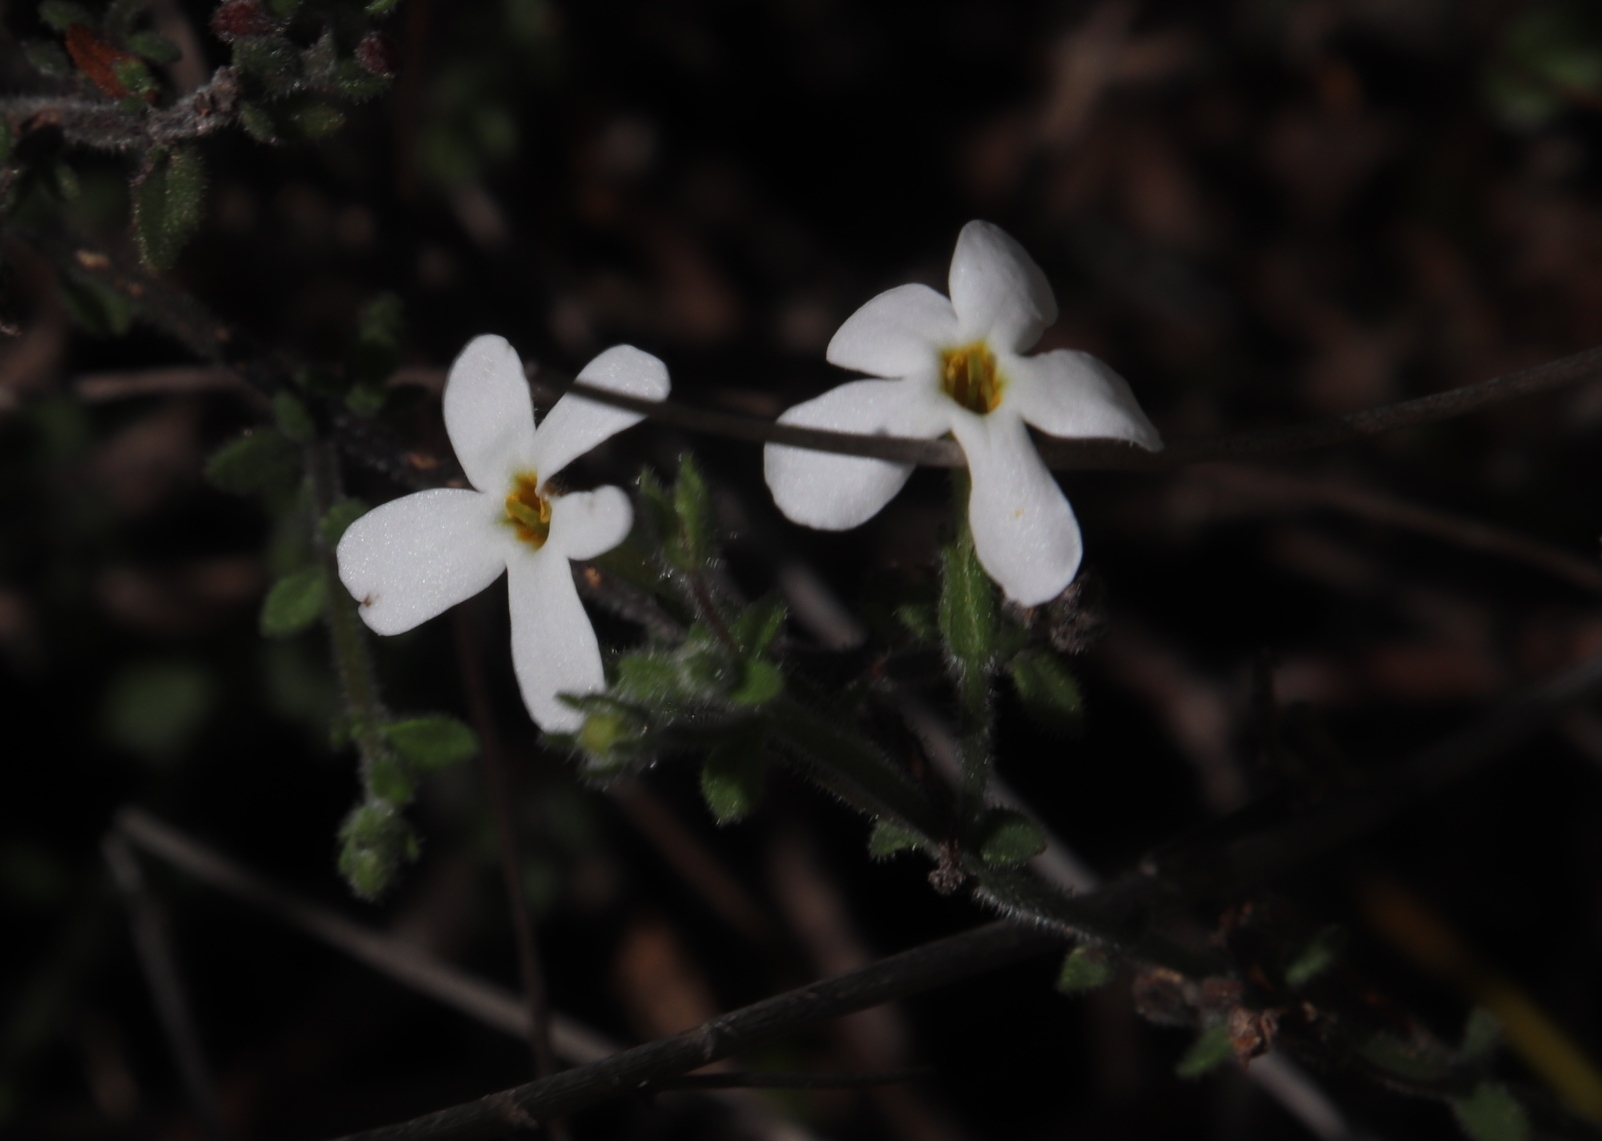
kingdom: Plantae
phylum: Tracheophyta
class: Magnoliopsida
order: Lamiales
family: Scrophulariaceae
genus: Chaenostoma
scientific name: Chaenostoma hispidum
